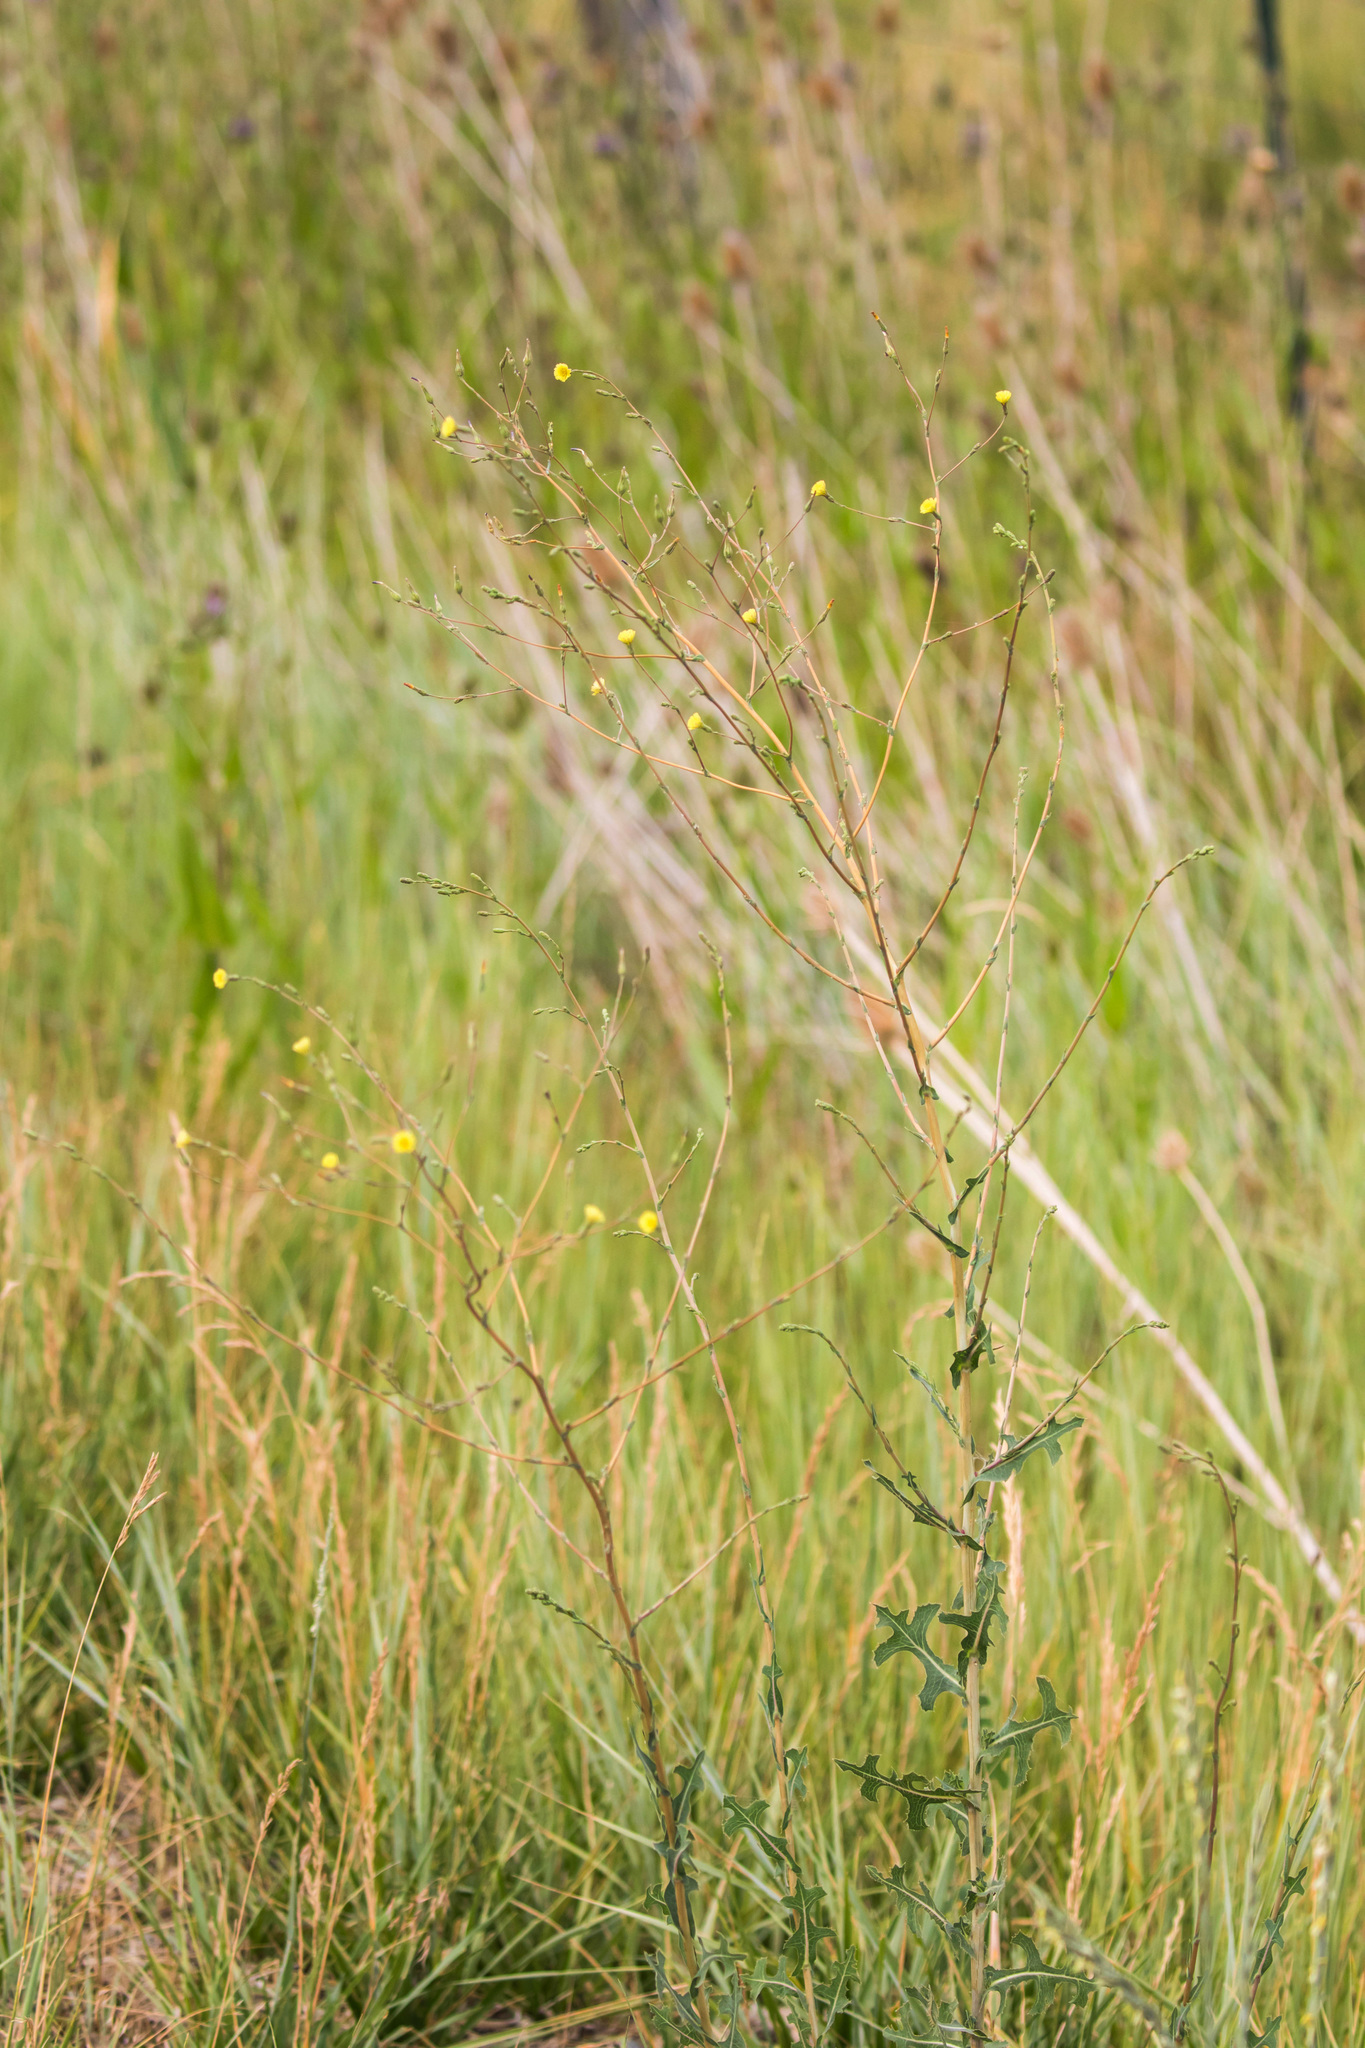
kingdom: Plantae
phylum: Tracheophyta
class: Magnoliopsida
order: Asterales
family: Asteraceae
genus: Lactuca
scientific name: Lactuca serriola
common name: Prickly lettuce
